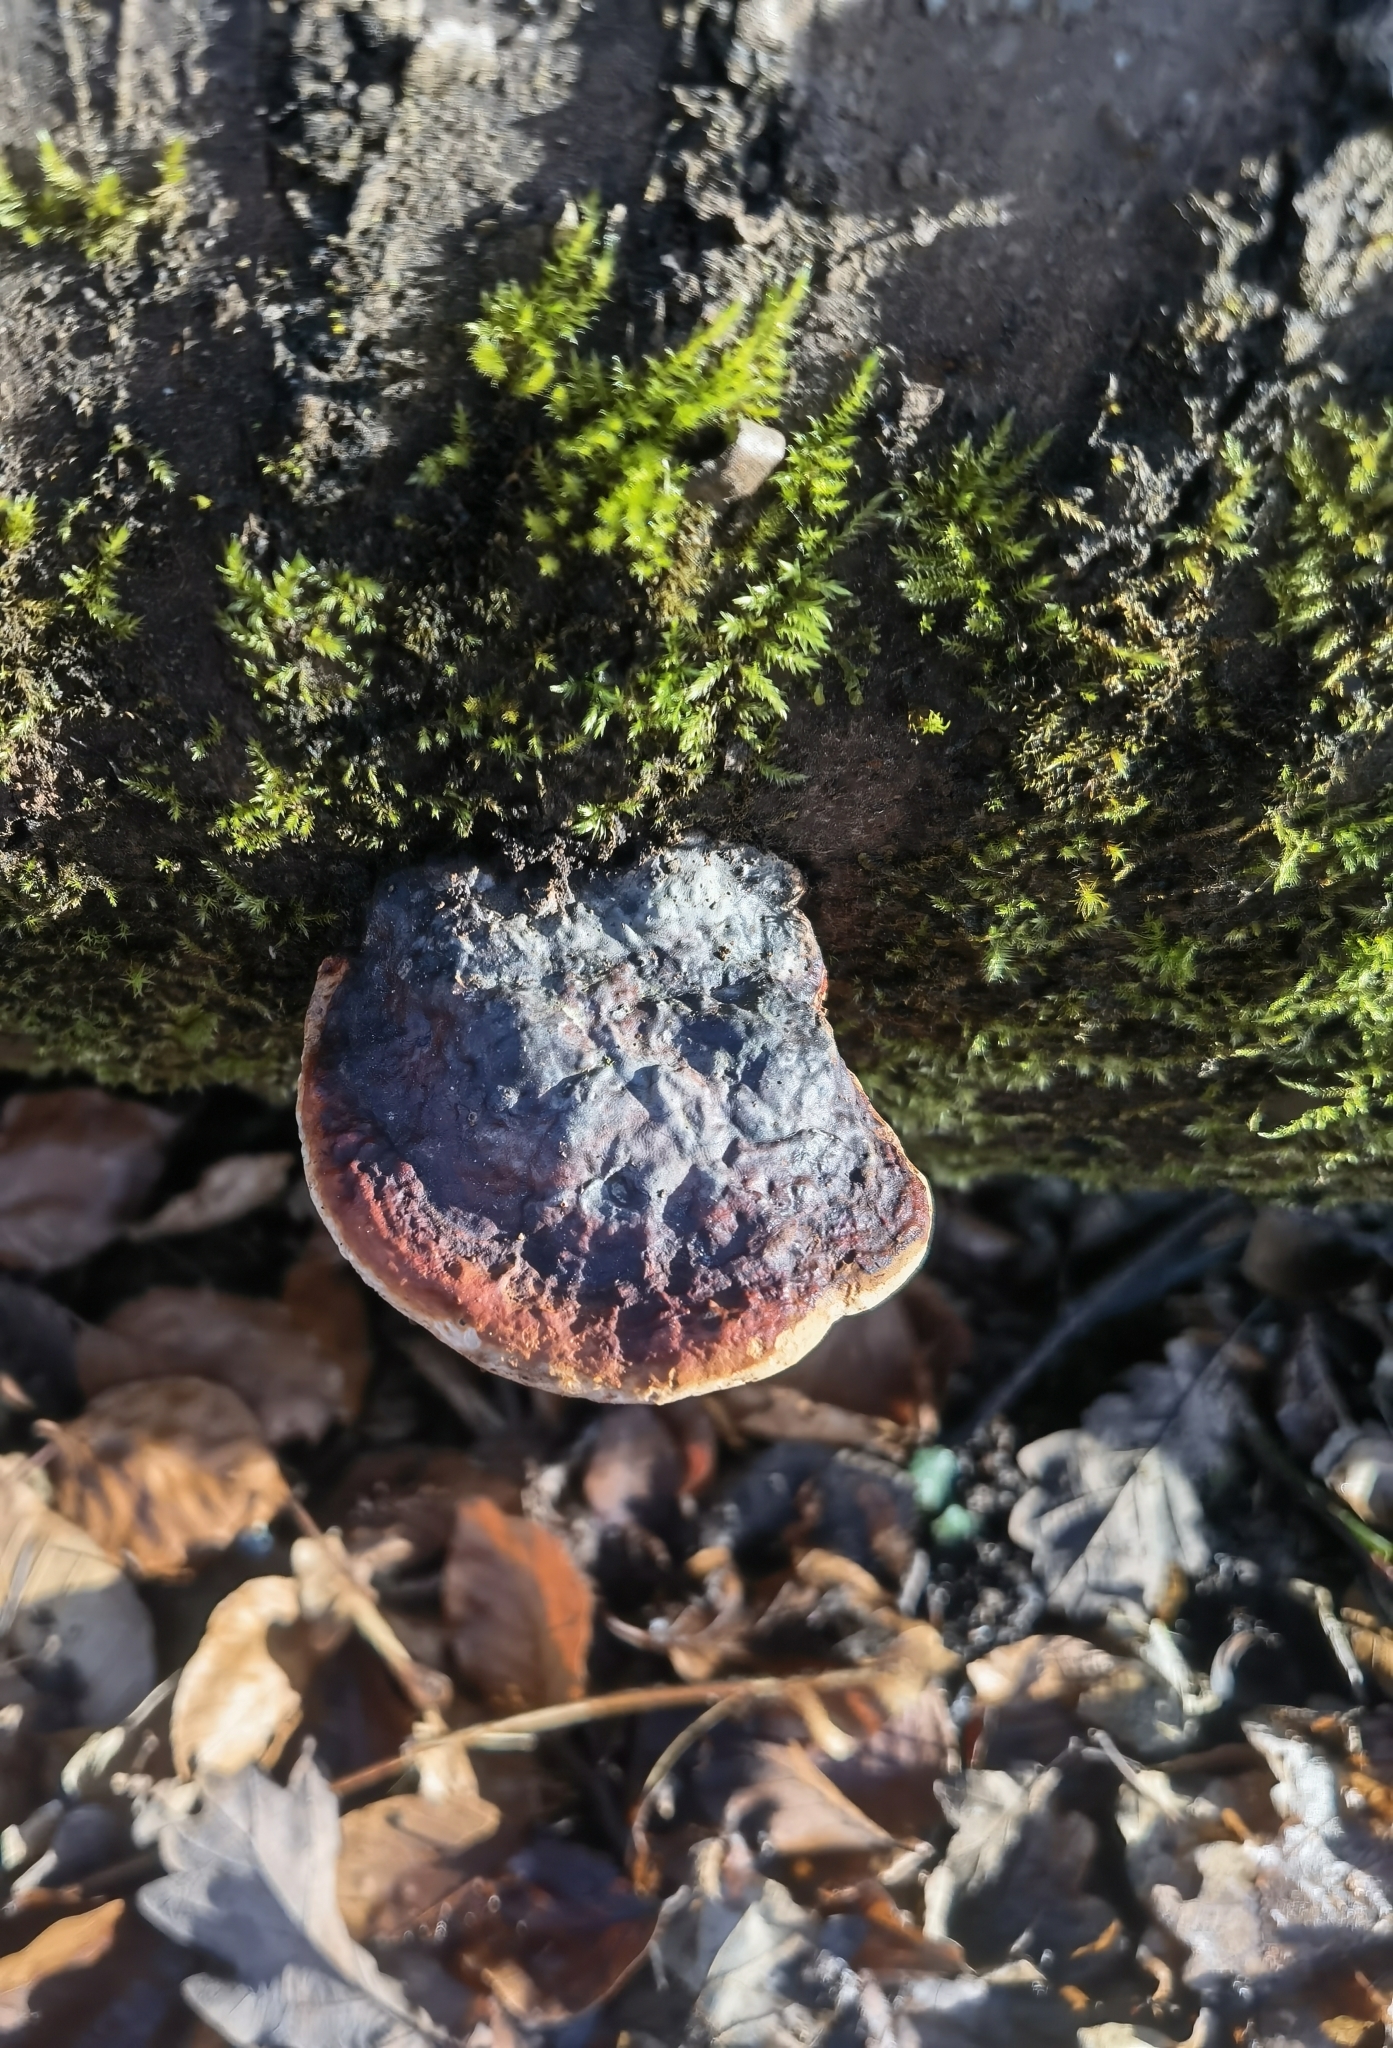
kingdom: Fungi
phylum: Basidiomycota
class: Agaricomycetes
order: Polyporales
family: Fomitopsidaceae
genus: Fomitopsis
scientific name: Fomitopsis pinicola
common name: Red-belted bracket
